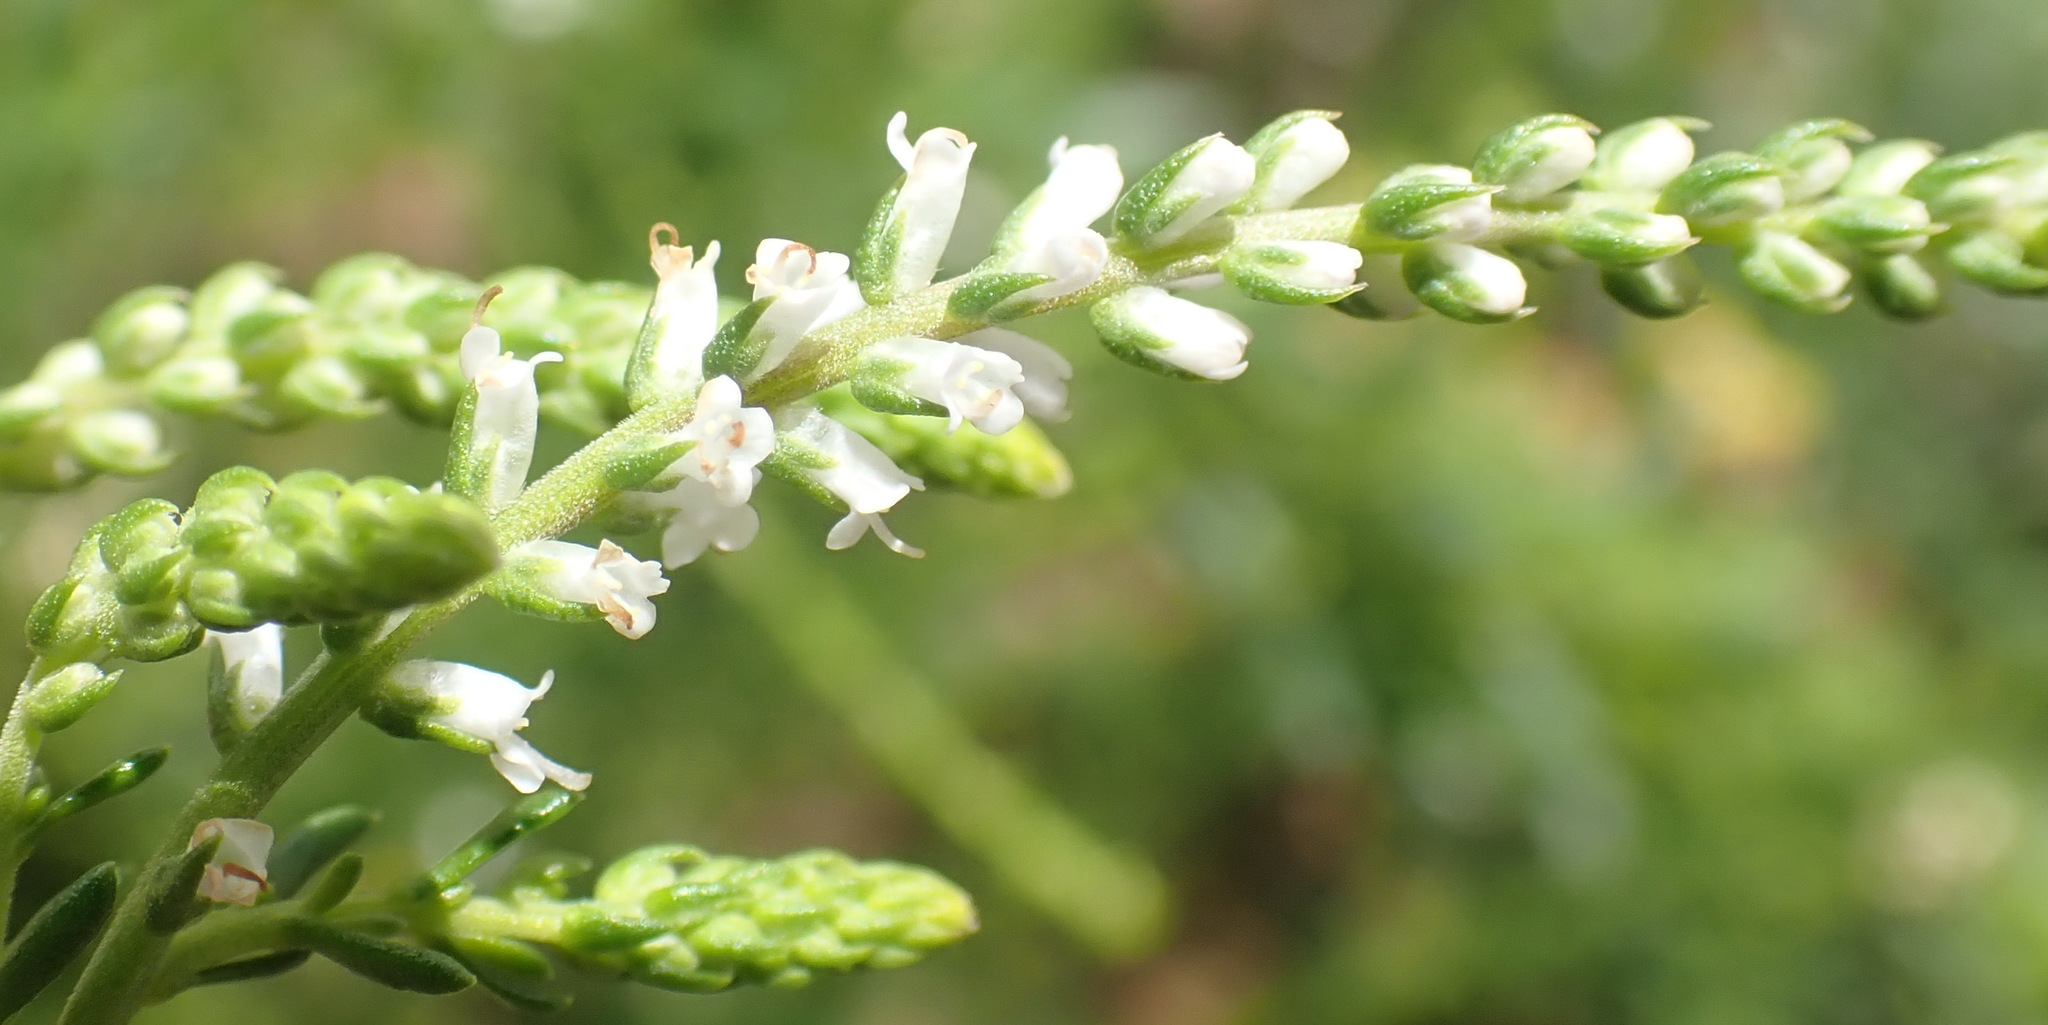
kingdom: Plantae
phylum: Tracheophyta
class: Magnoliopsida
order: Lamiales
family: Scrophulariaceae
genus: Selago
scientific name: Selago geniculata
